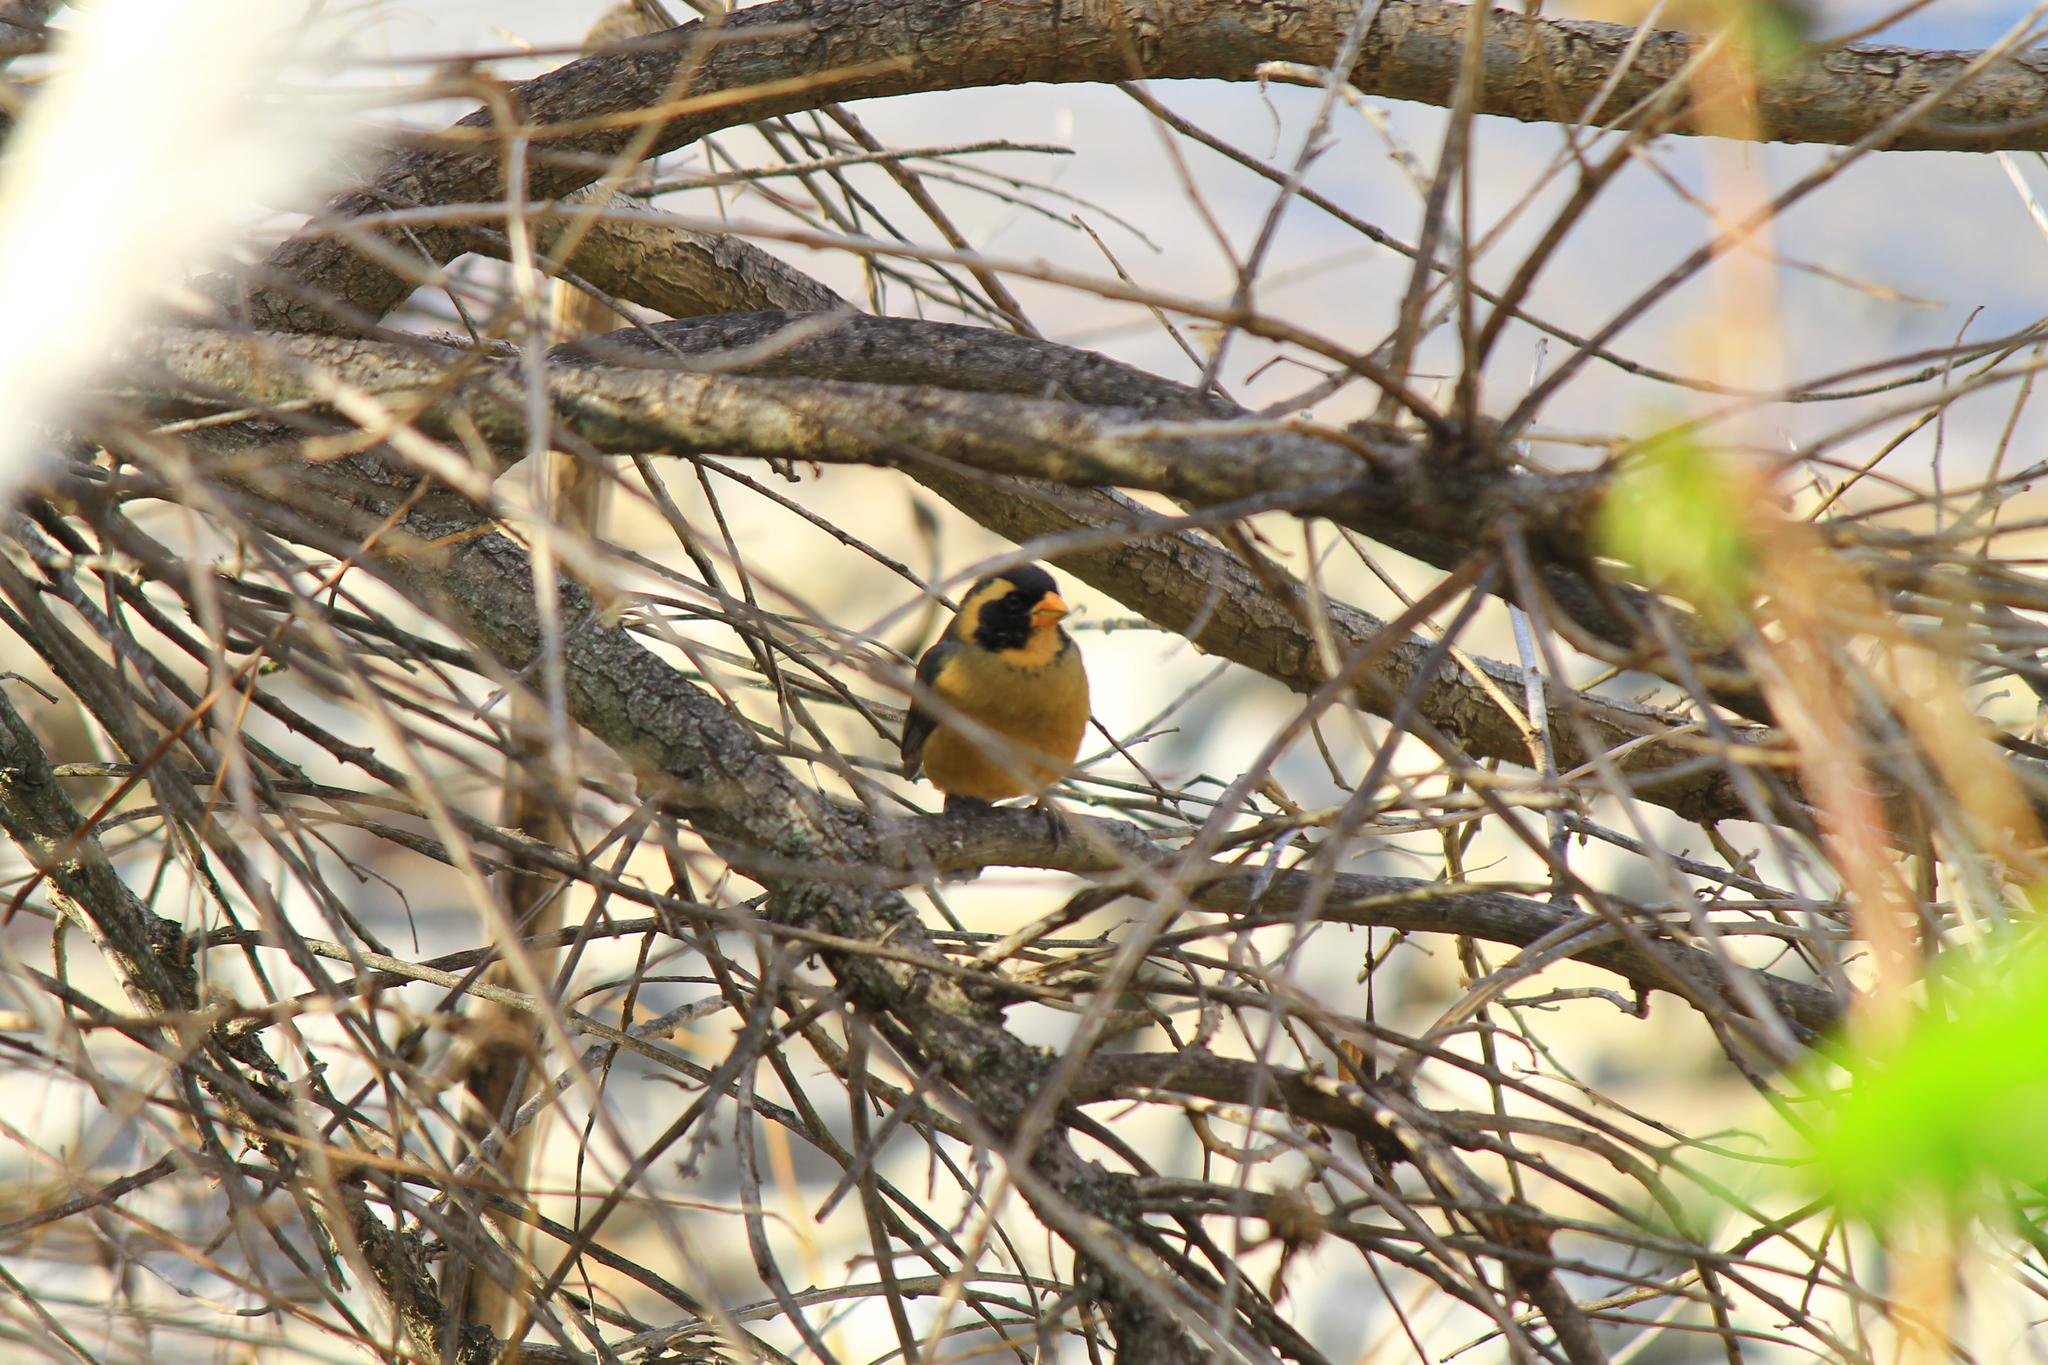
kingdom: Animalia
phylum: Chordata
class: Aves
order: Passeriformes
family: Thraupidae
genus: Saltator
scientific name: Saltator aurantiirostris
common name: Golden-billed saltator
